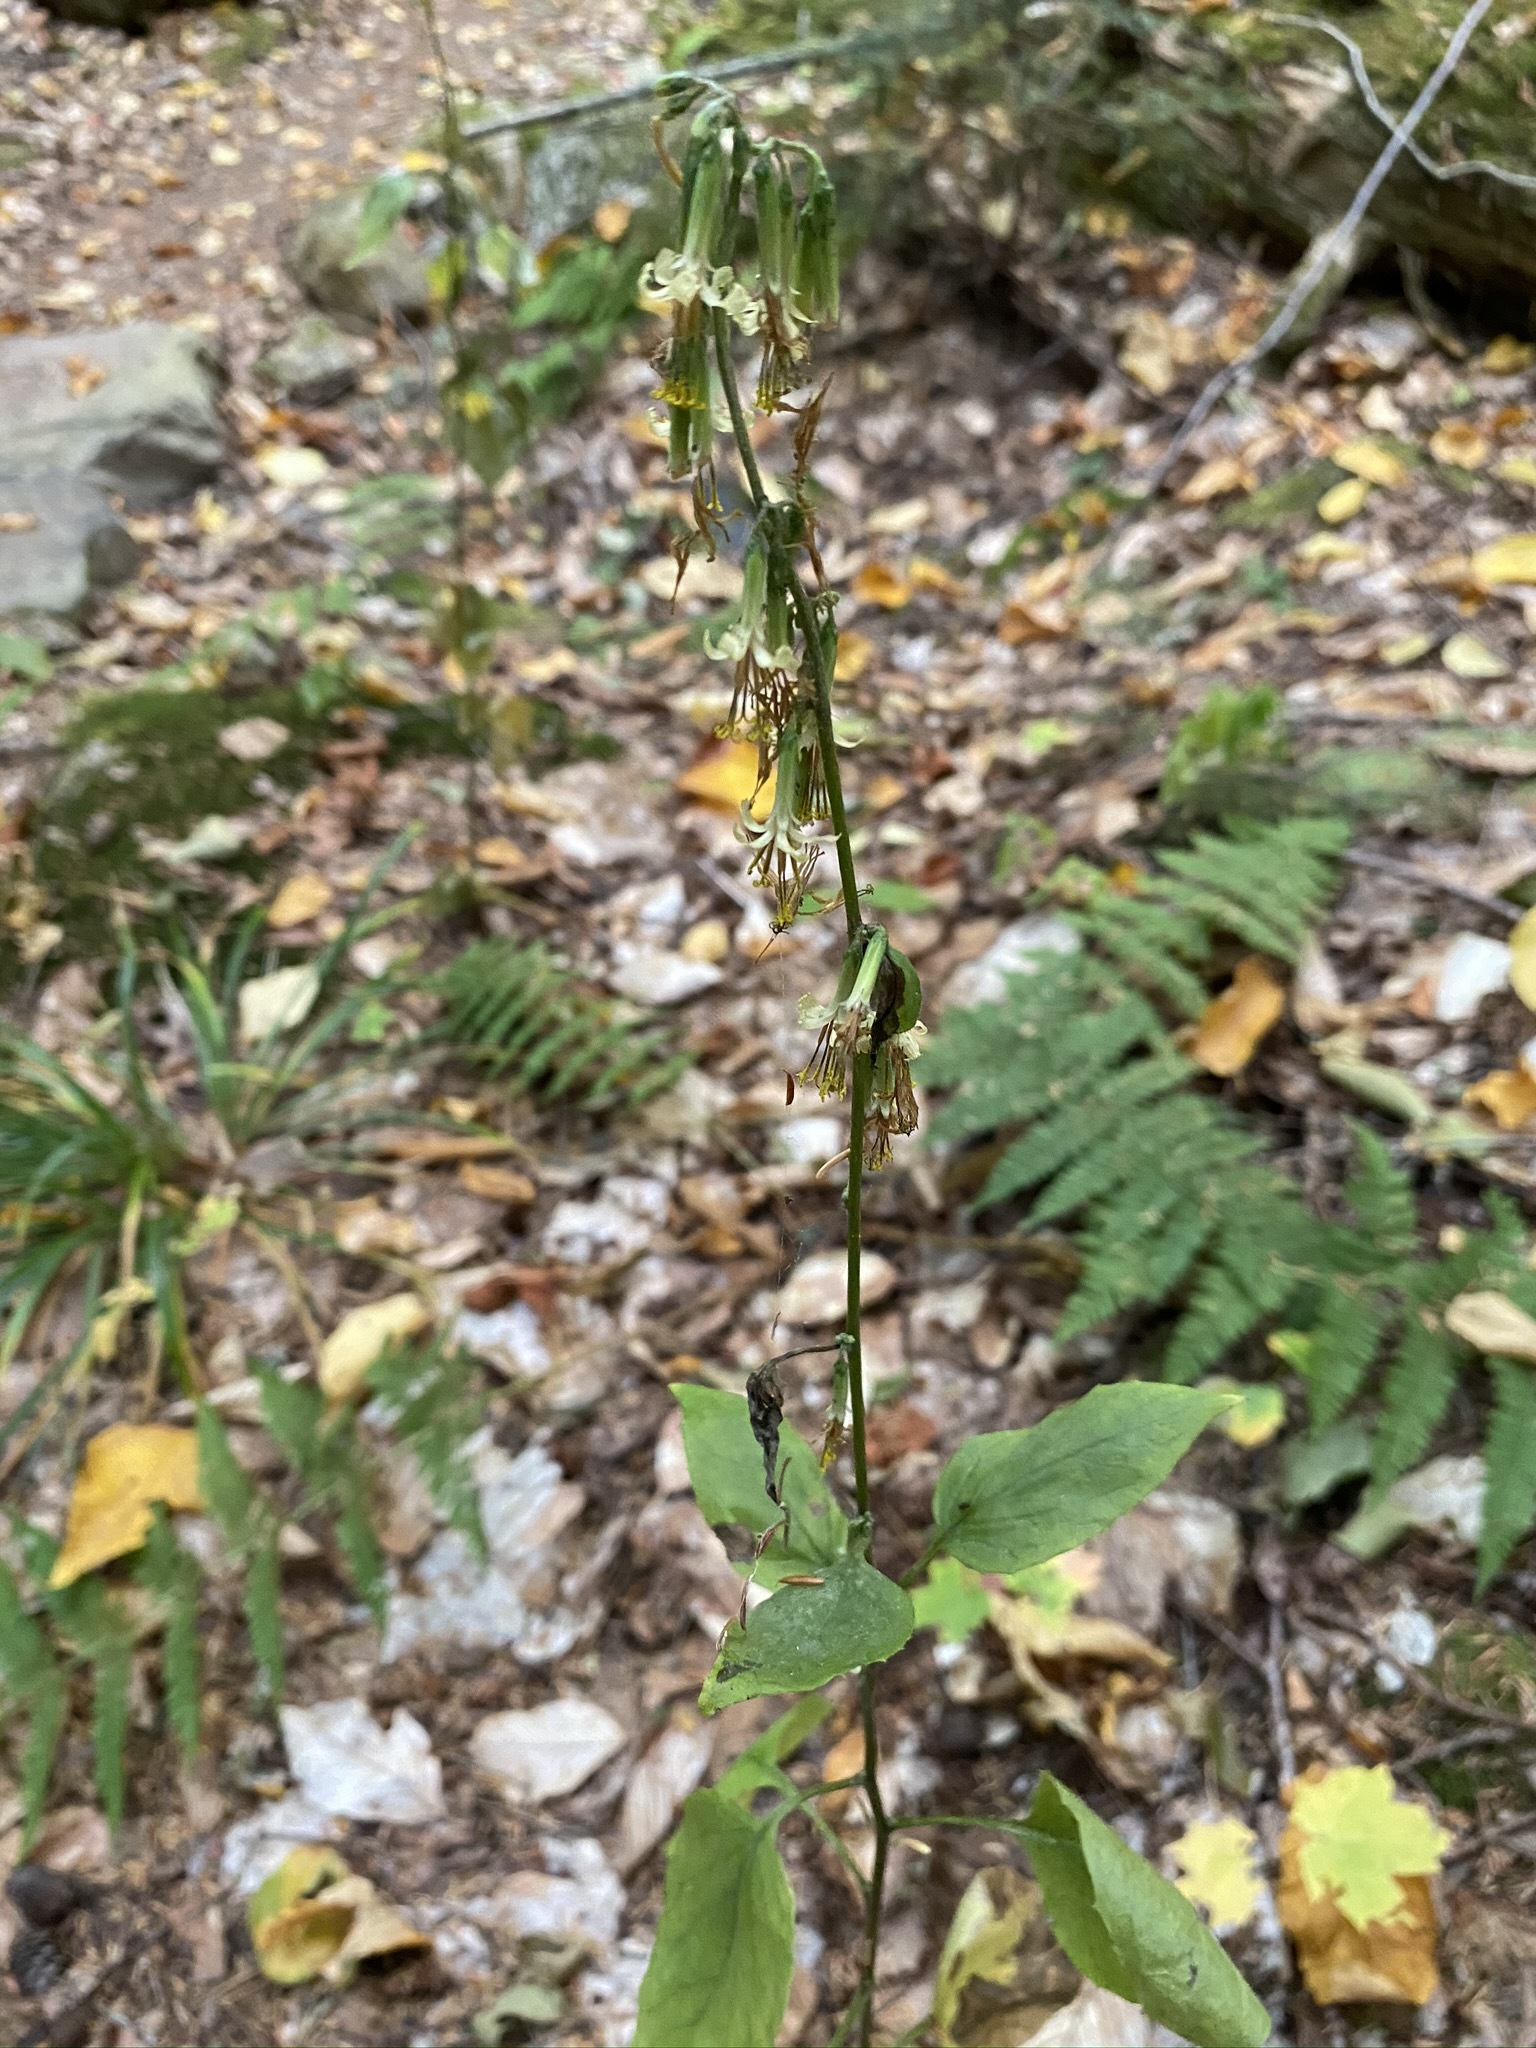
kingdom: Plantae
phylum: Tracheophyta
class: Magnoliopsida
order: Asterales
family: Asteraceae
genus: Nabalus
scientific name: Nabalus altissima
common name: Tall rattlesnakeroot
